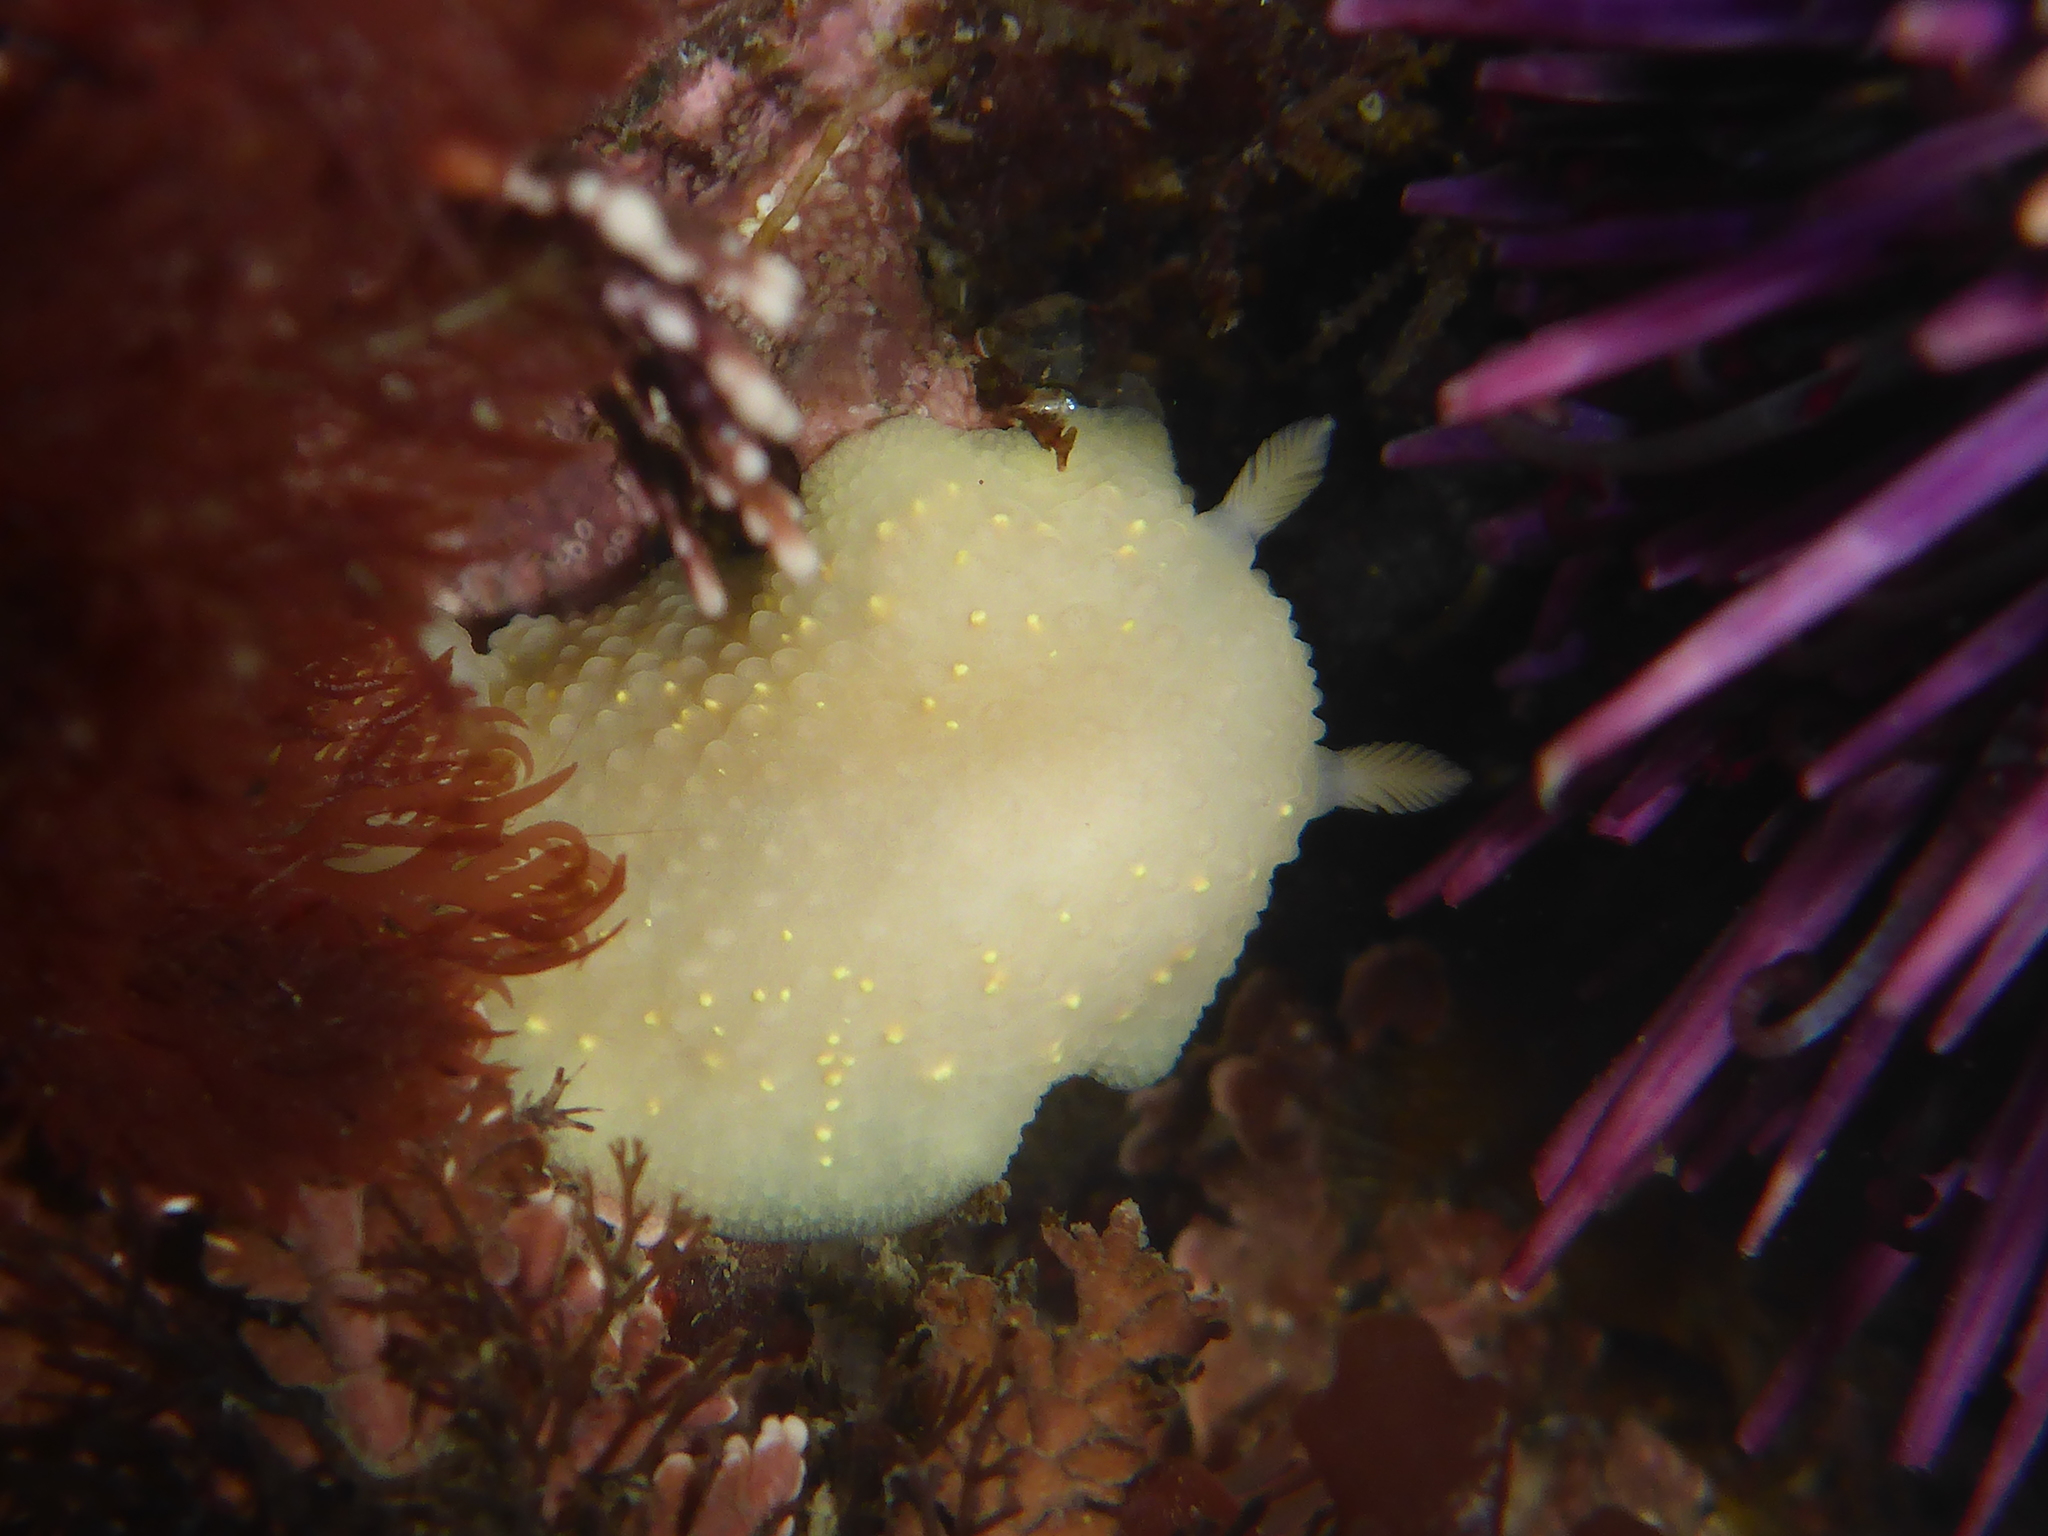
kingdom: Animalia
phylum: Mollusca
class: Gastropoda
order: Nudibranchia
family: Cadlinidae
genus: Cadlina
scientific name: Cadlina modesta
